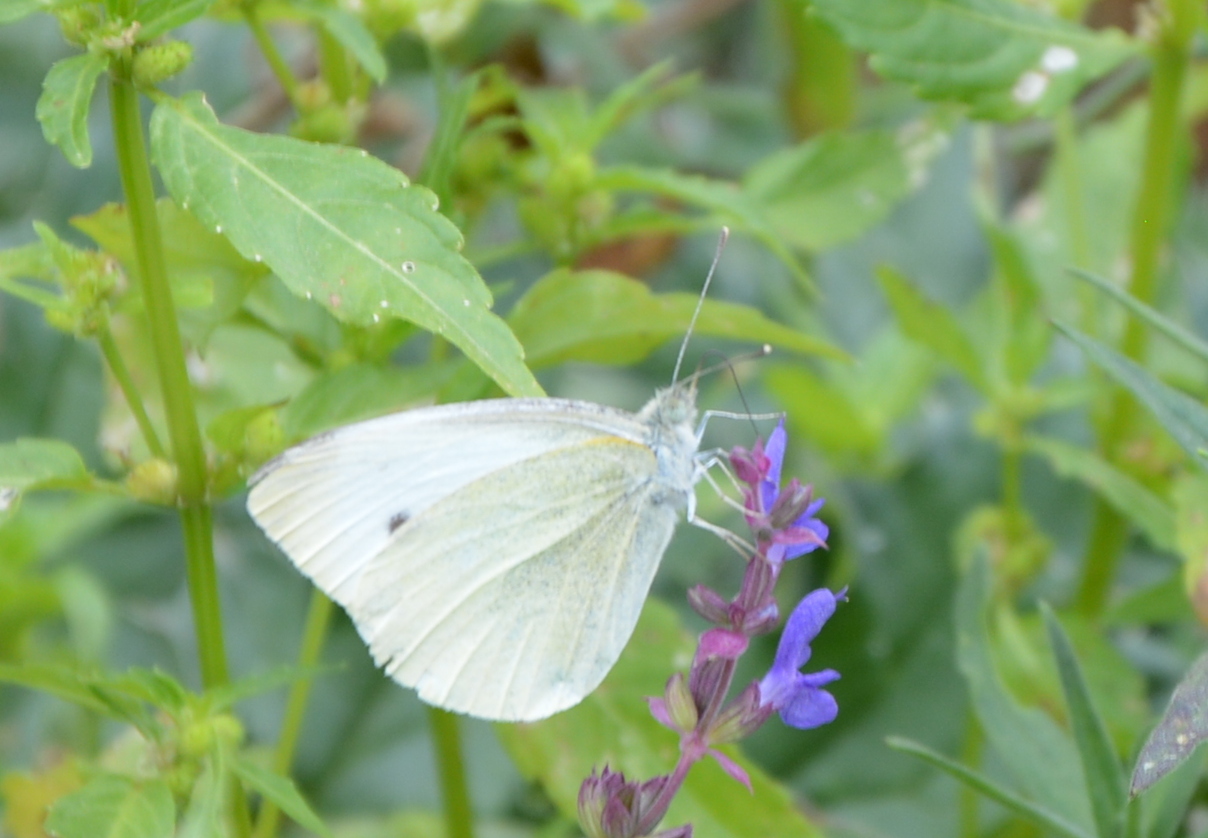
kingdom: Animalia
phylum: Arthropoda
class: Insecta
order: Lepidoptera
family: Pieridae
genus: Pieris
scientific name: Pieris rapae
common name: Small white
